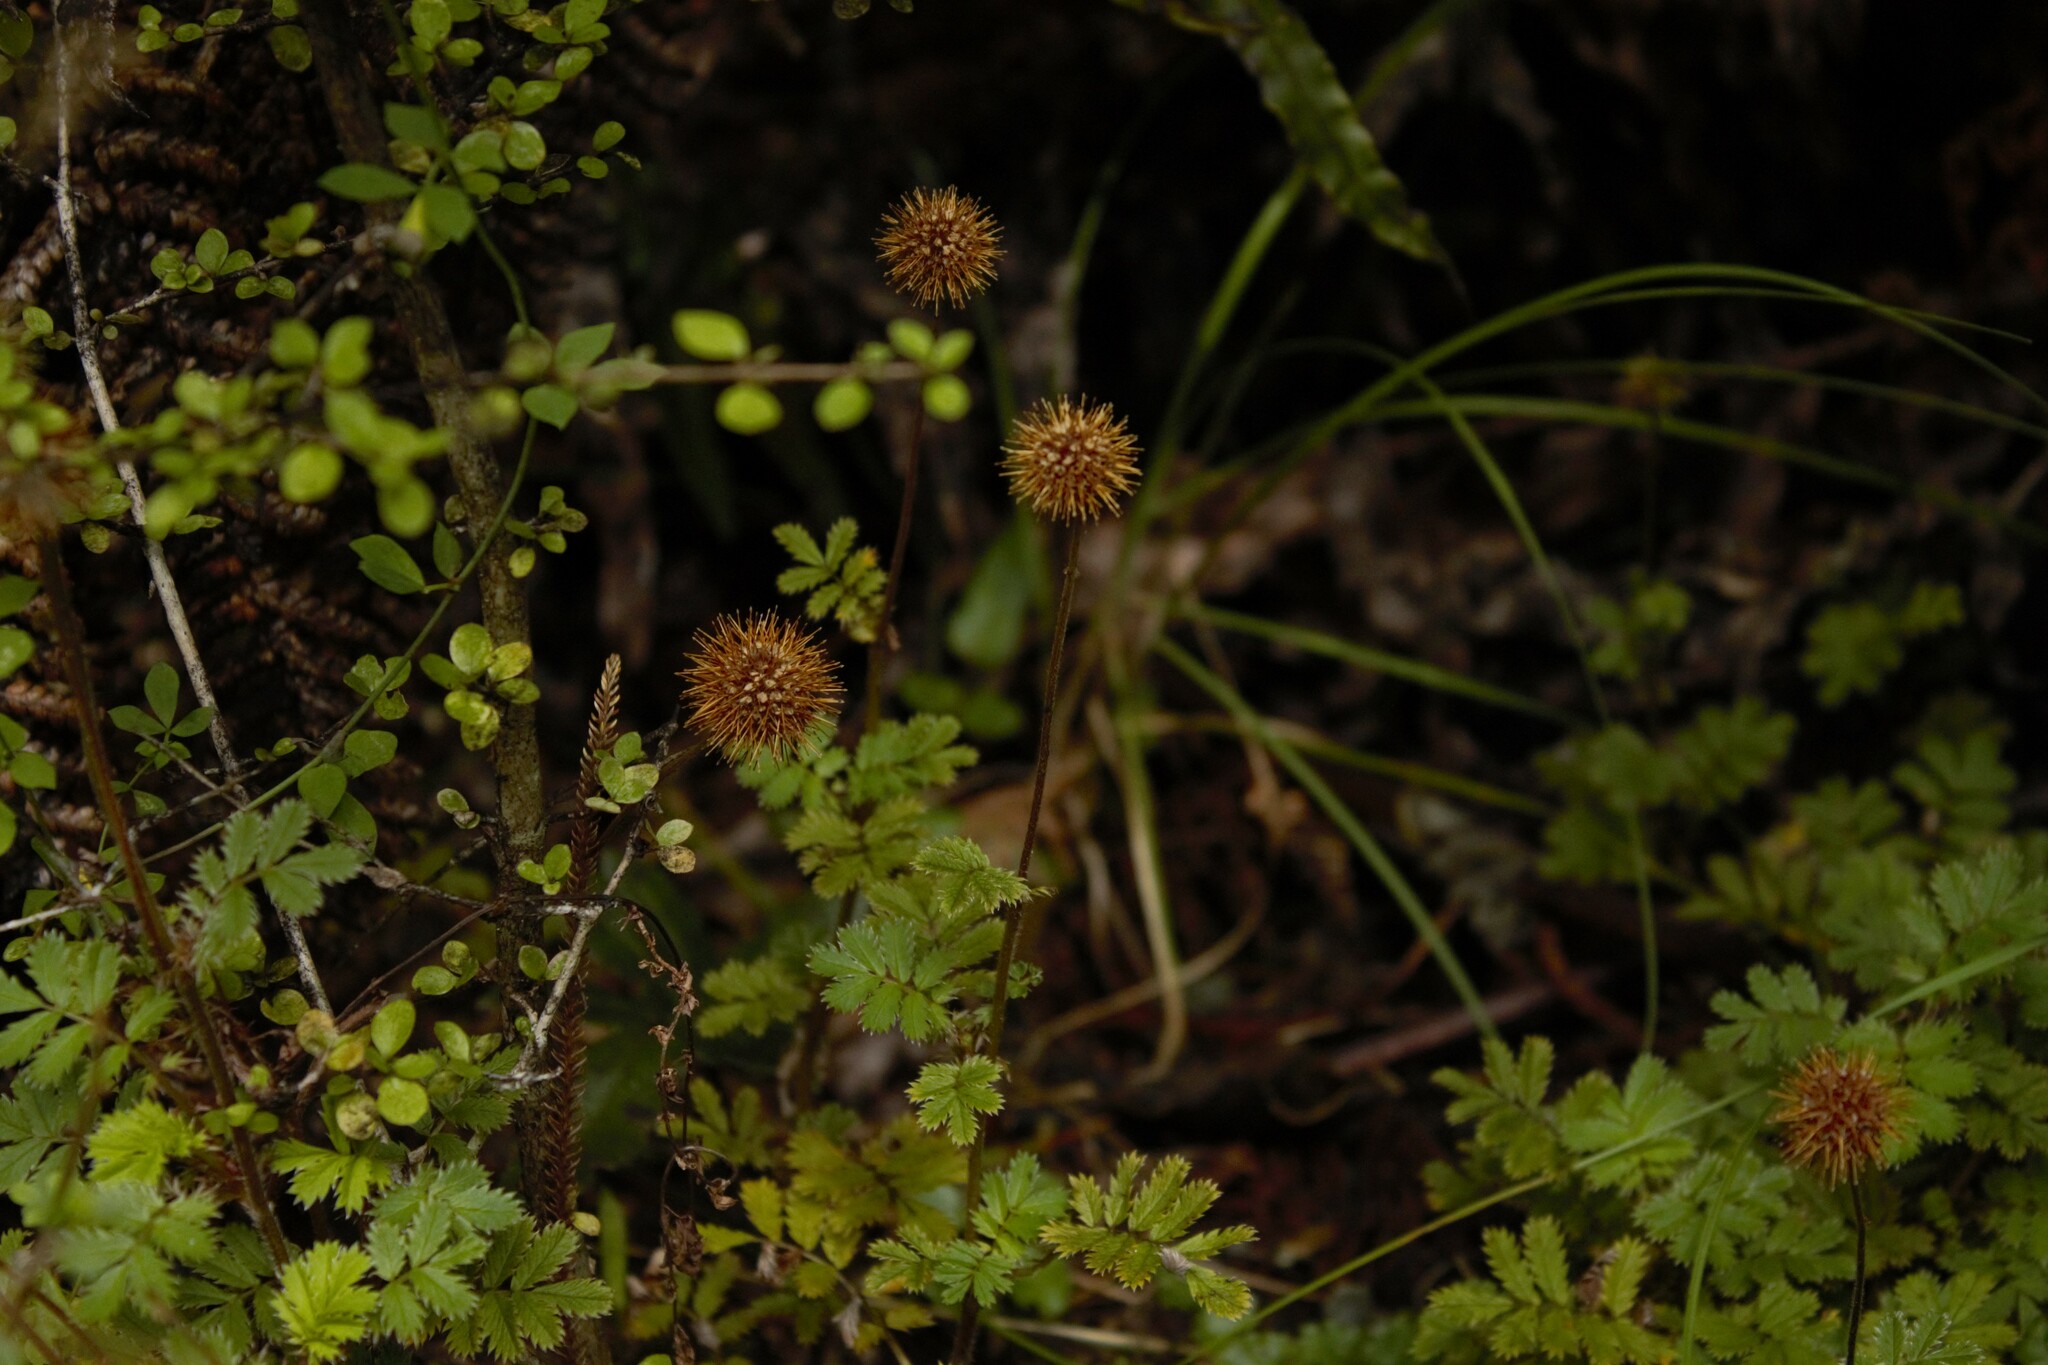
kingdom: Plantae
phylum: Tracheophyta
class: Magnoliopsida
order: Rosales
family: Rosaceae
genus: Acaena
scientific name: Acaena anserinifolia
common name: Bronze pirri-pirri-bur
